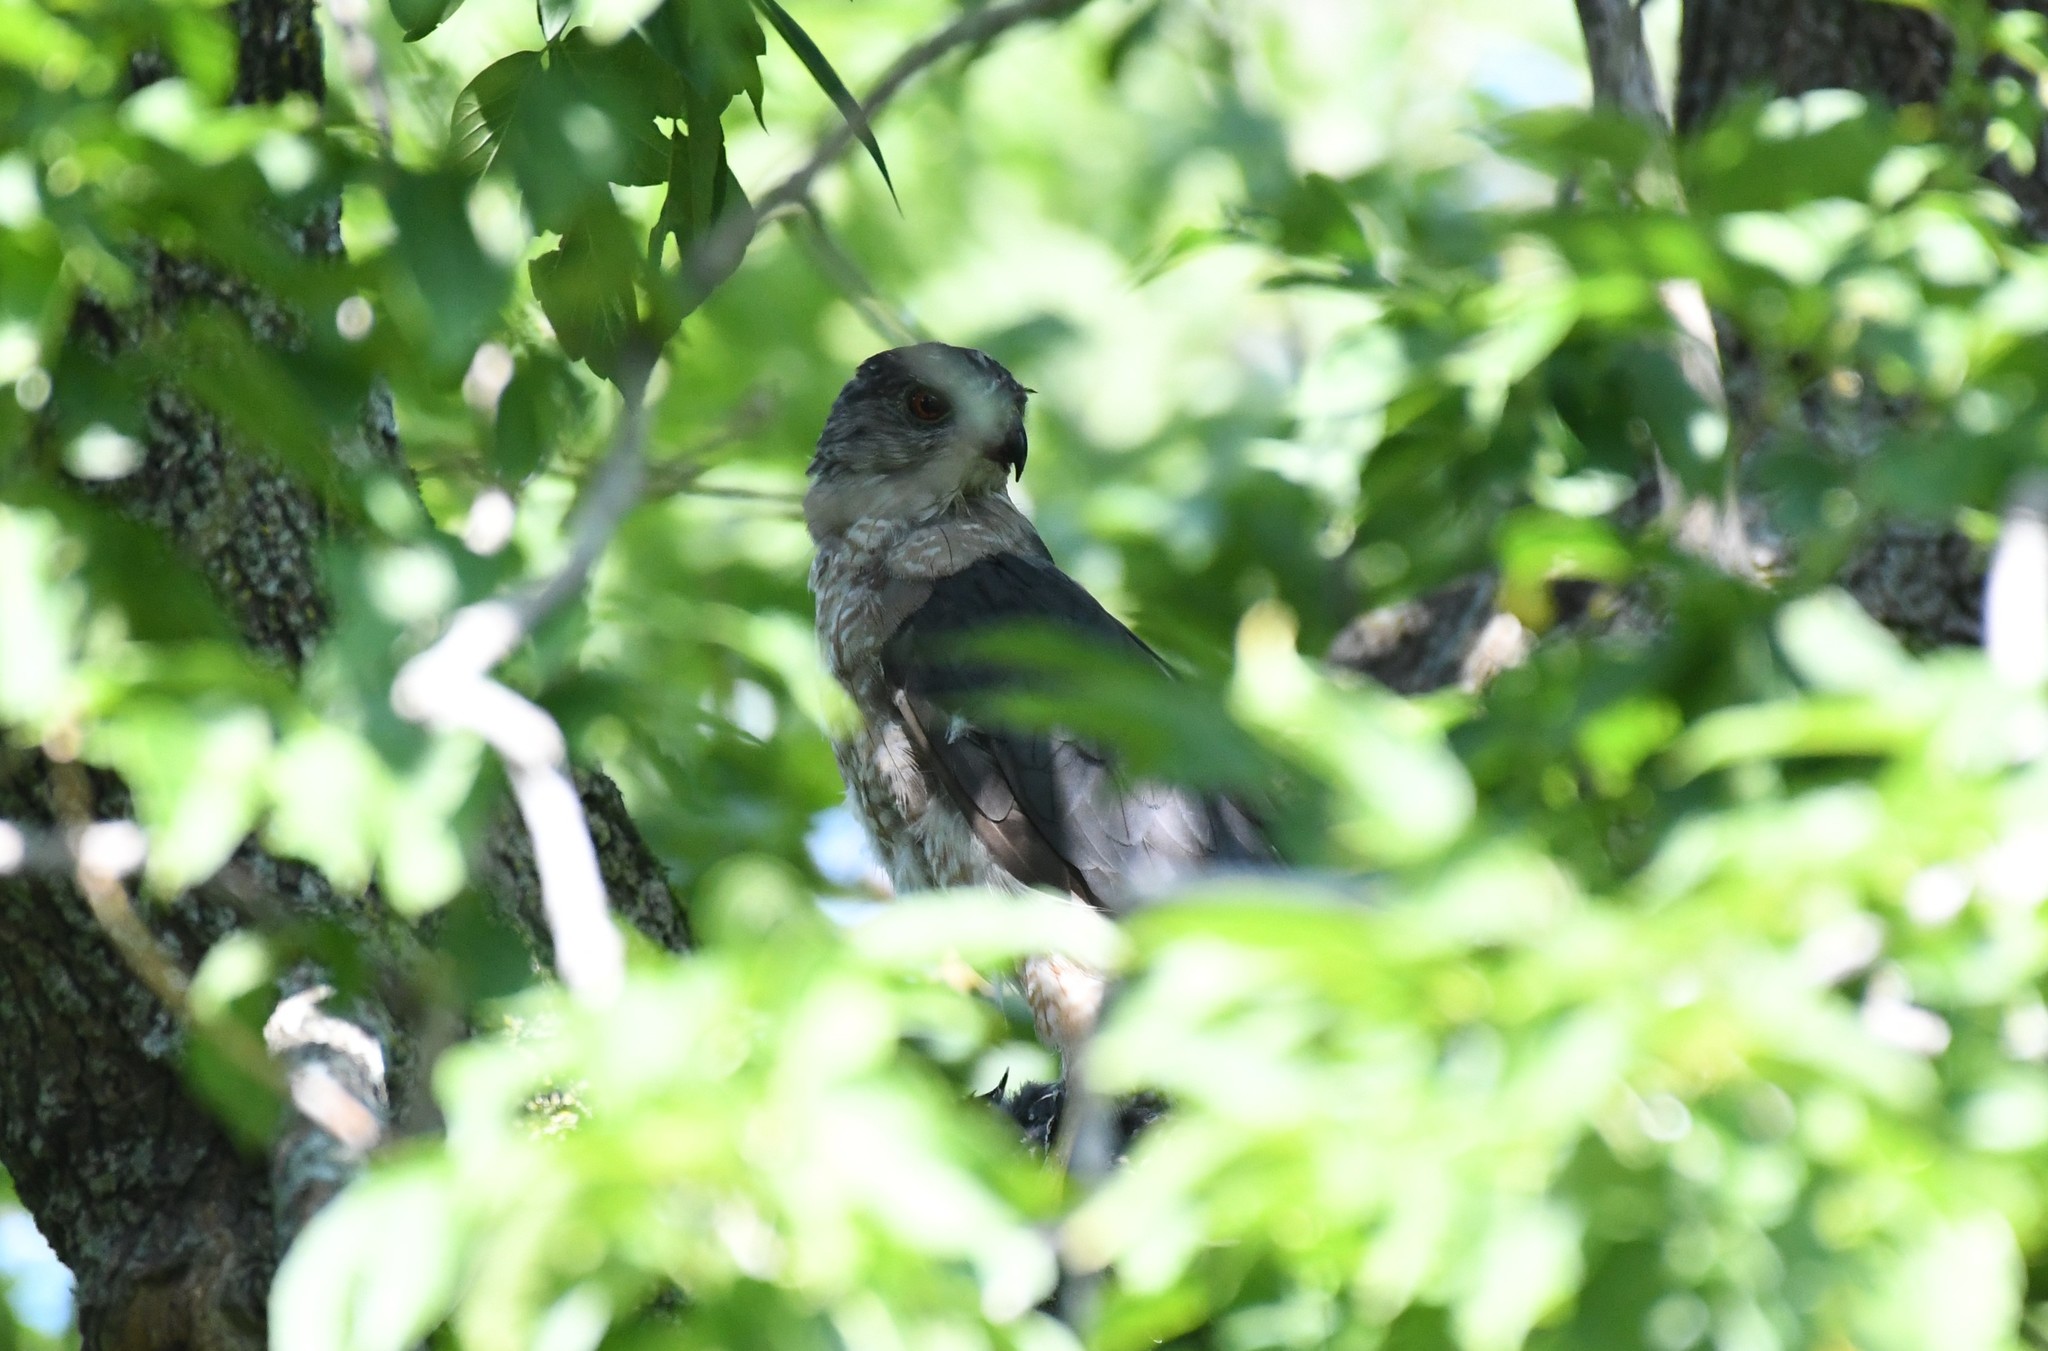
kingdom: Animalia
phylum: Chordata
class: Aves
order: Accipitriformes
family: Accipitridae
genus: Accipiter
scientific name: Accipiter cooperii
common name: Cooper's hawk
